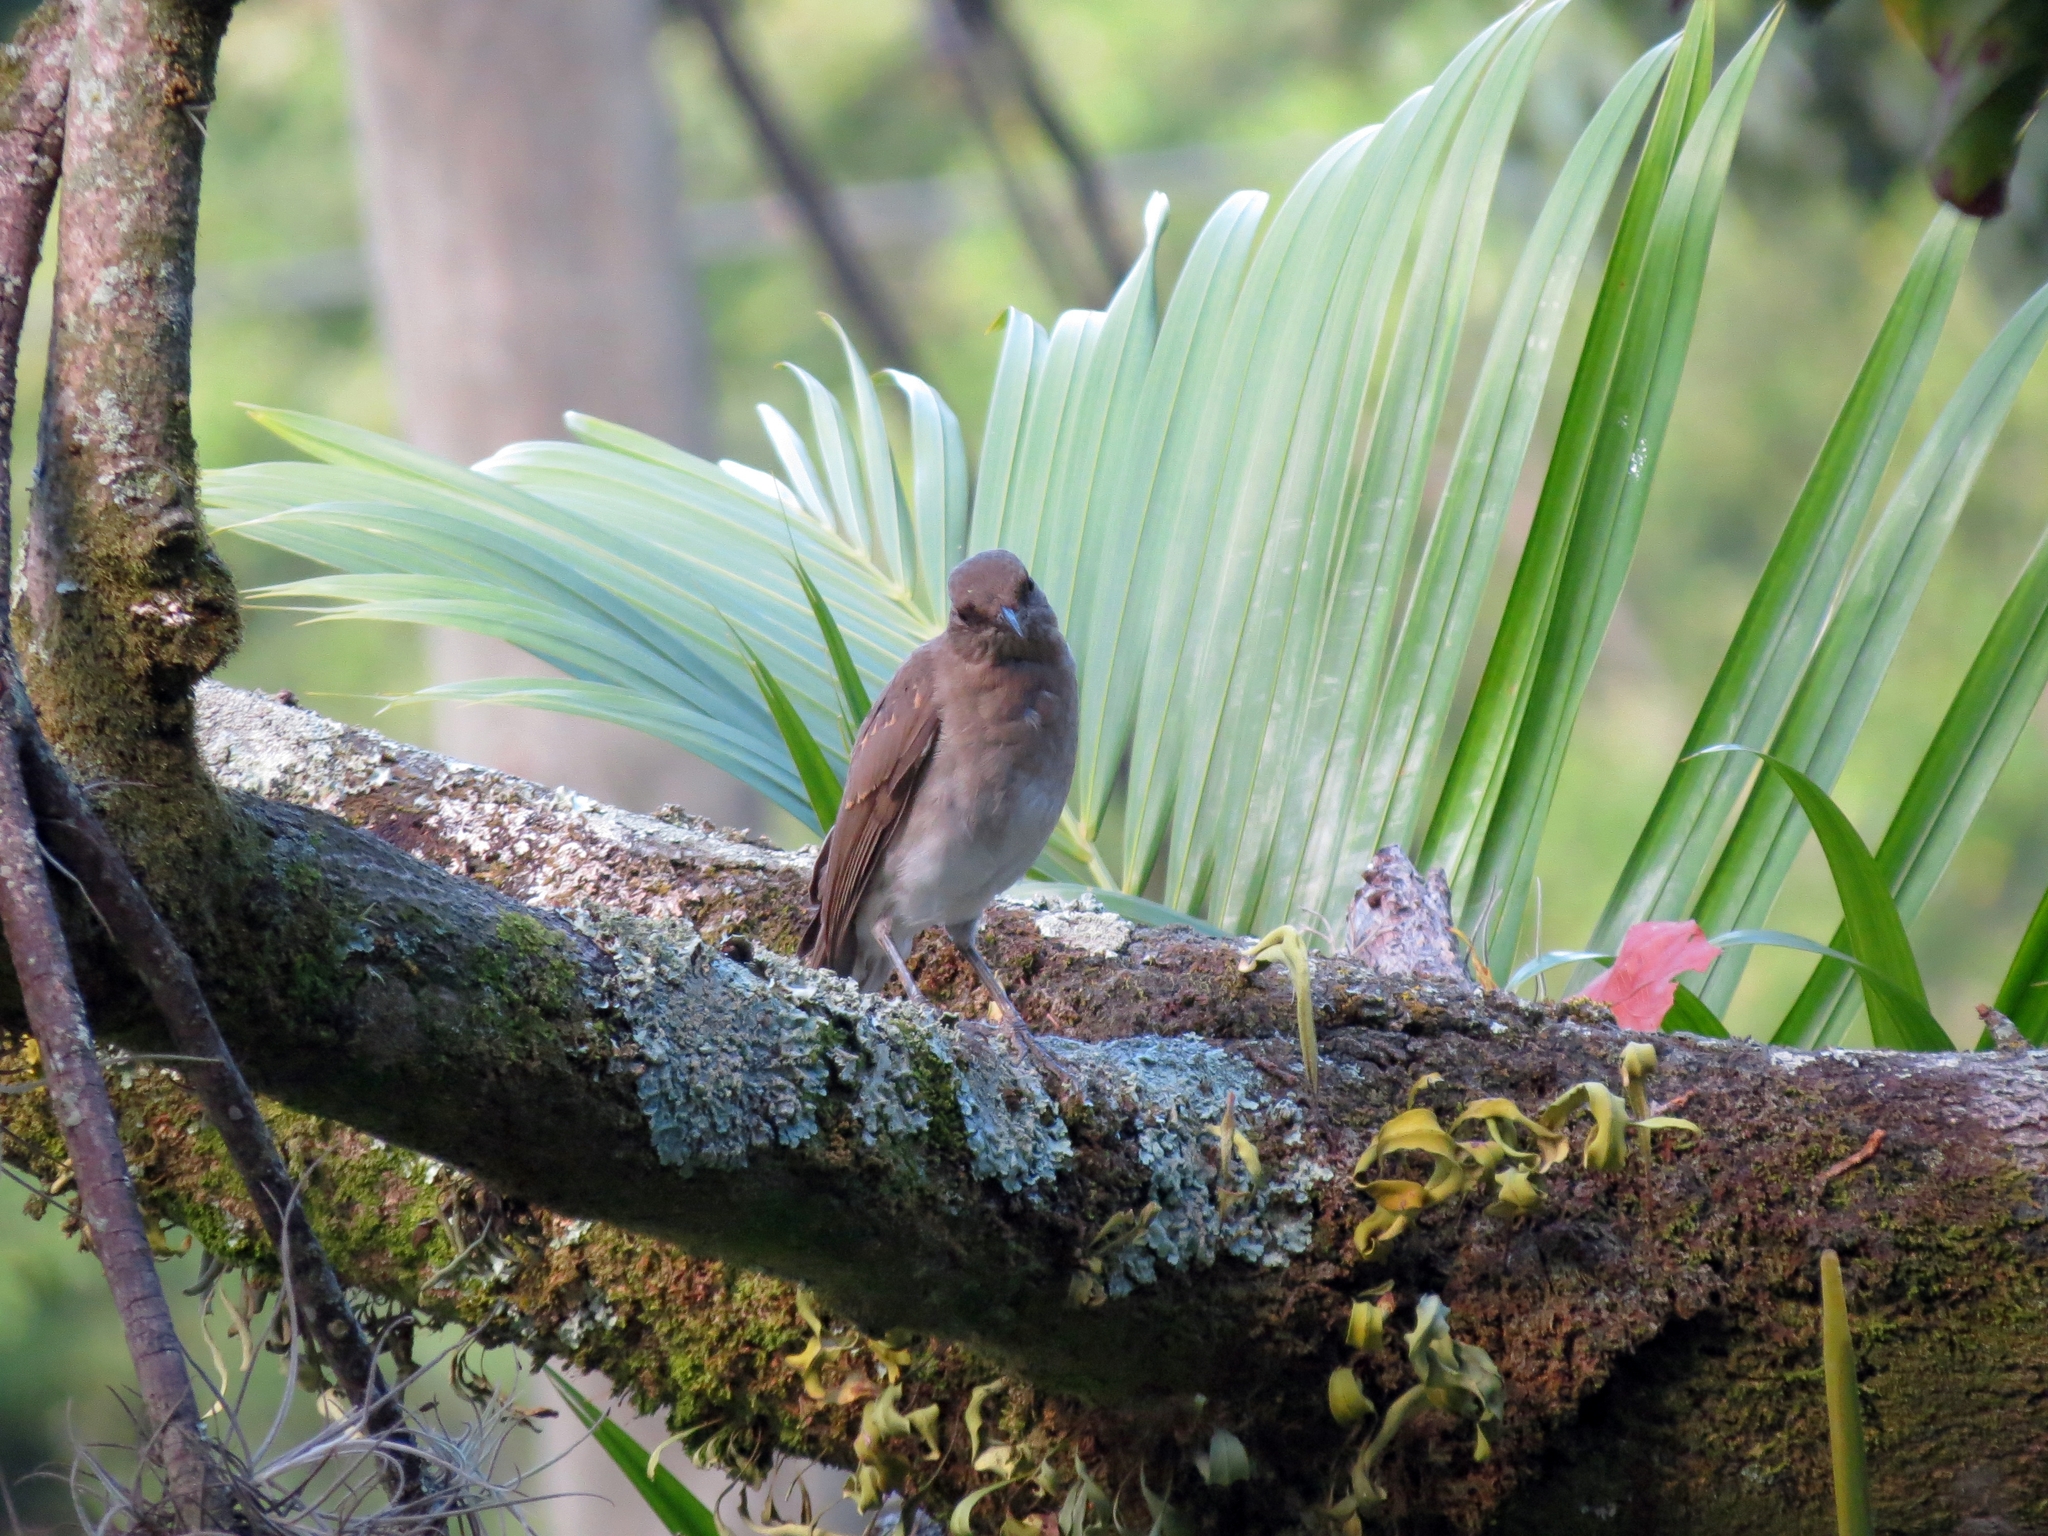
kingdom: Animalia
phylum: Chordata
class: Aves
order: Passeriformes
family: Turdidae
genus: Turdus
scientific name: Turdus ignobilis
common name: Black-billed thrush
